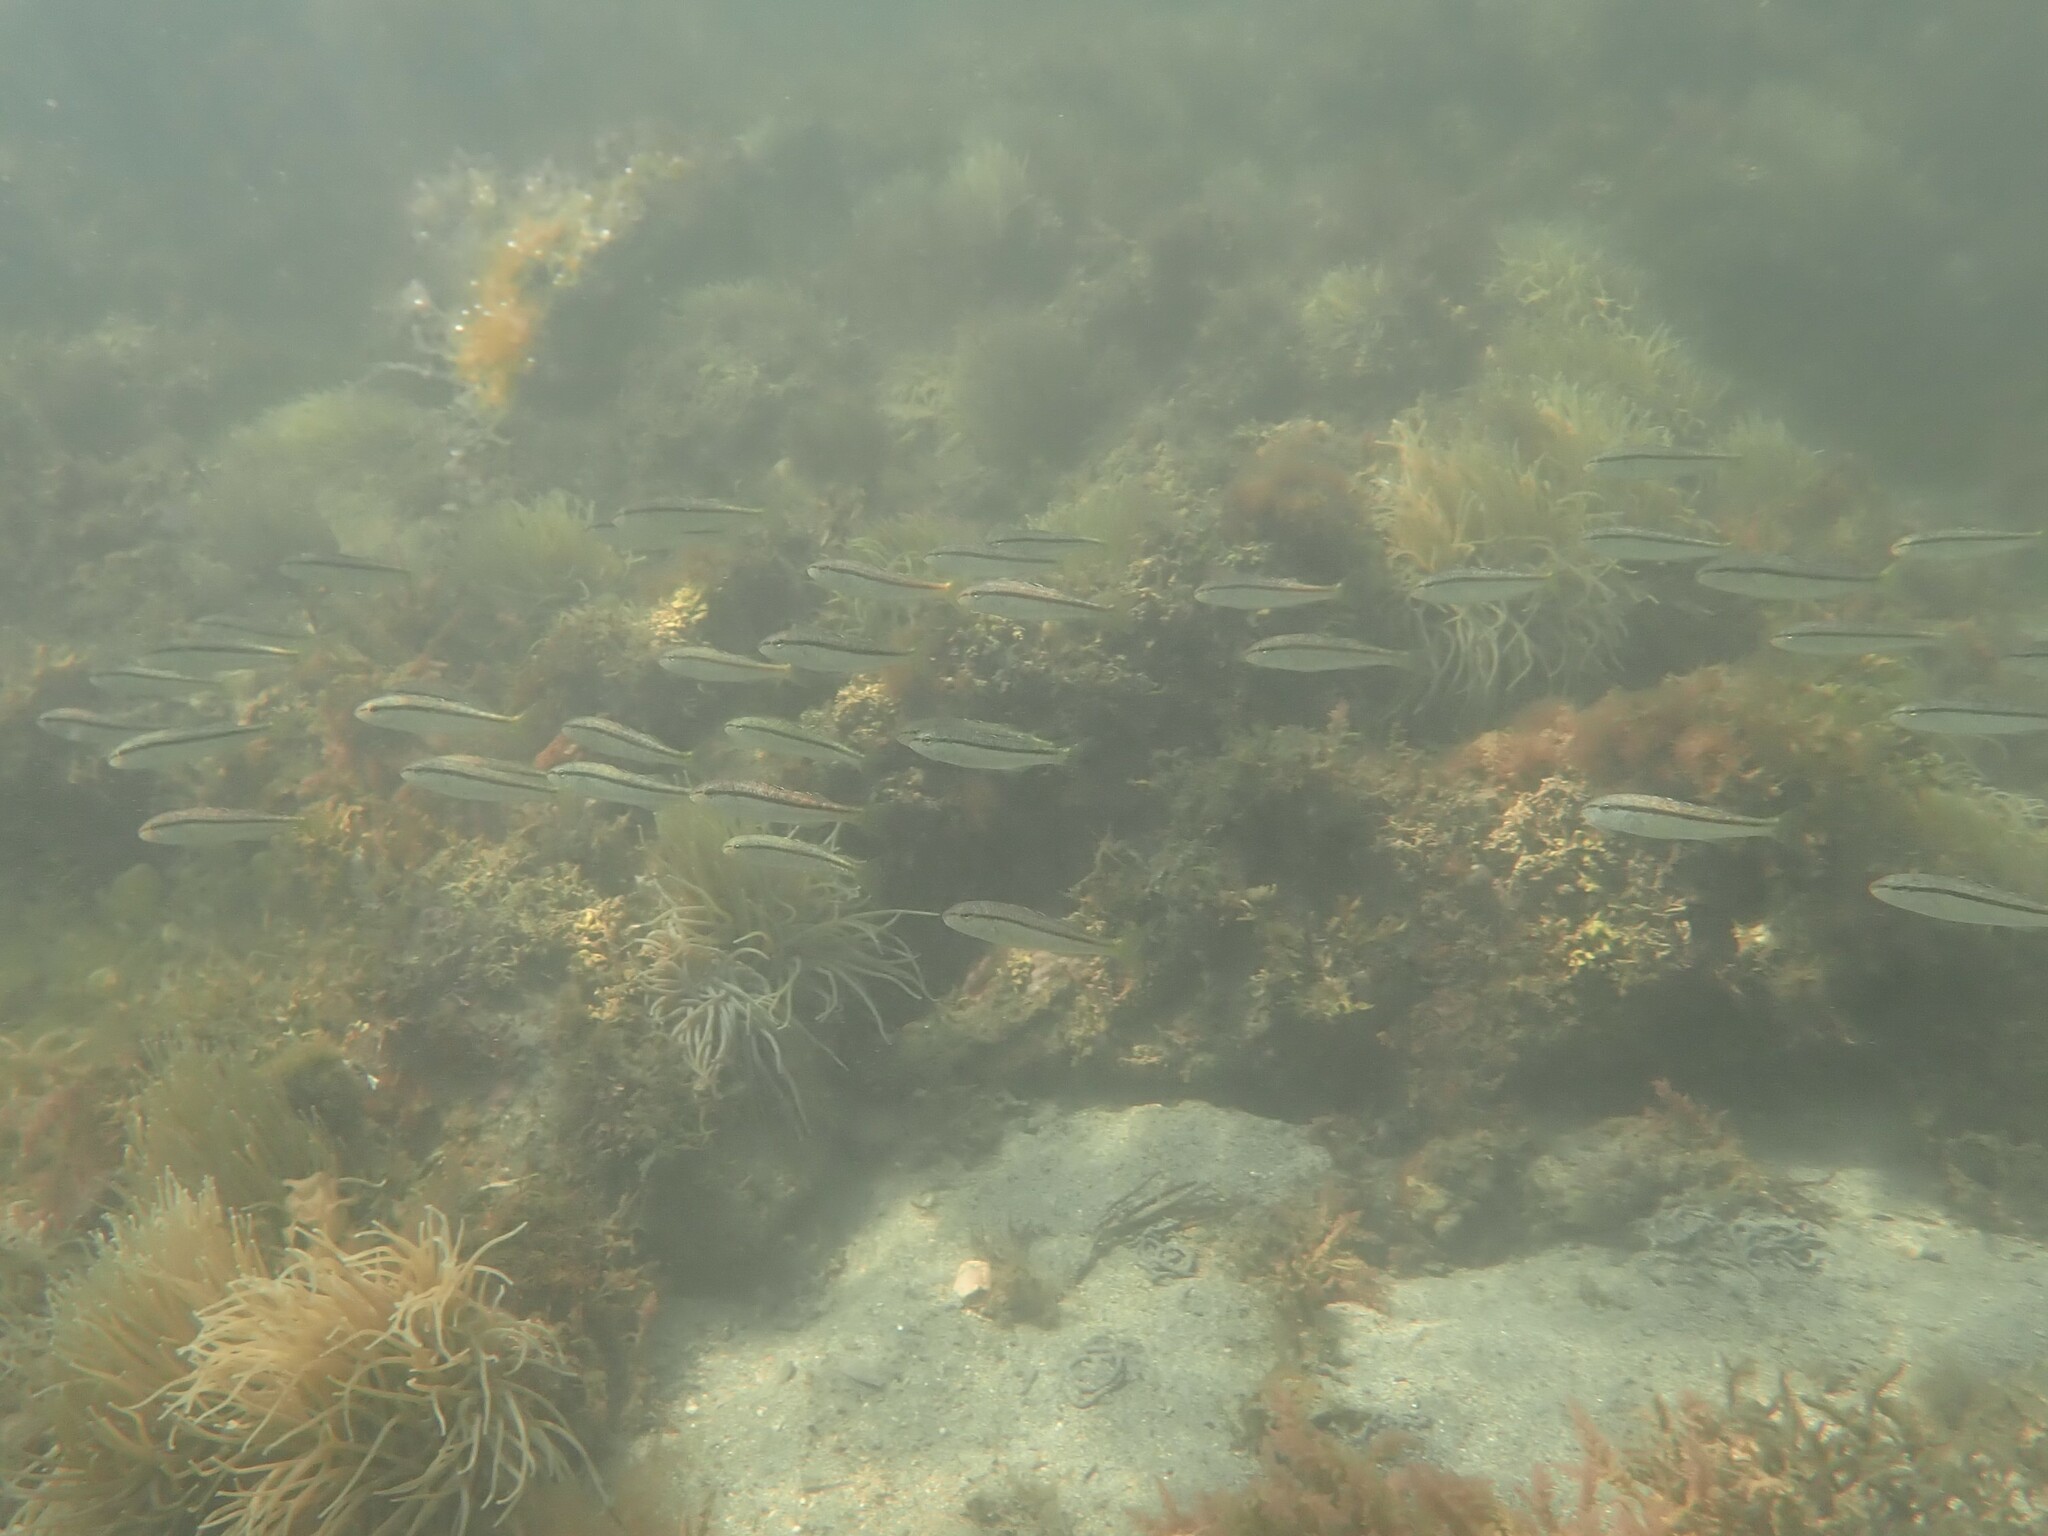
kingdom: Animalia
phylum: Chordata
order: Perciformes
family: Mullidae
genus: Mullus
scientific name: Mullus surmuletus
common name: Red mullet
